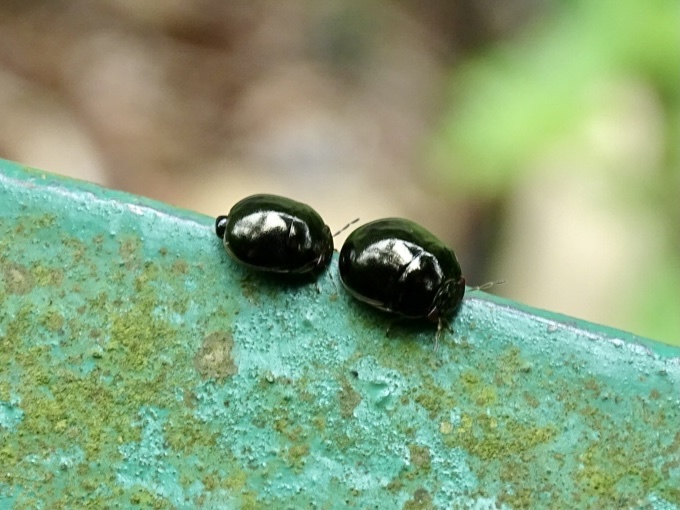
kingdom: Animalia
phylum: Arthropoda
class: Insecta
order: Hemiptera
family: Plataspidae
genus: Brachyplatys
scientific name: Brachyplatys subaeneus
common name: Black bean bug
